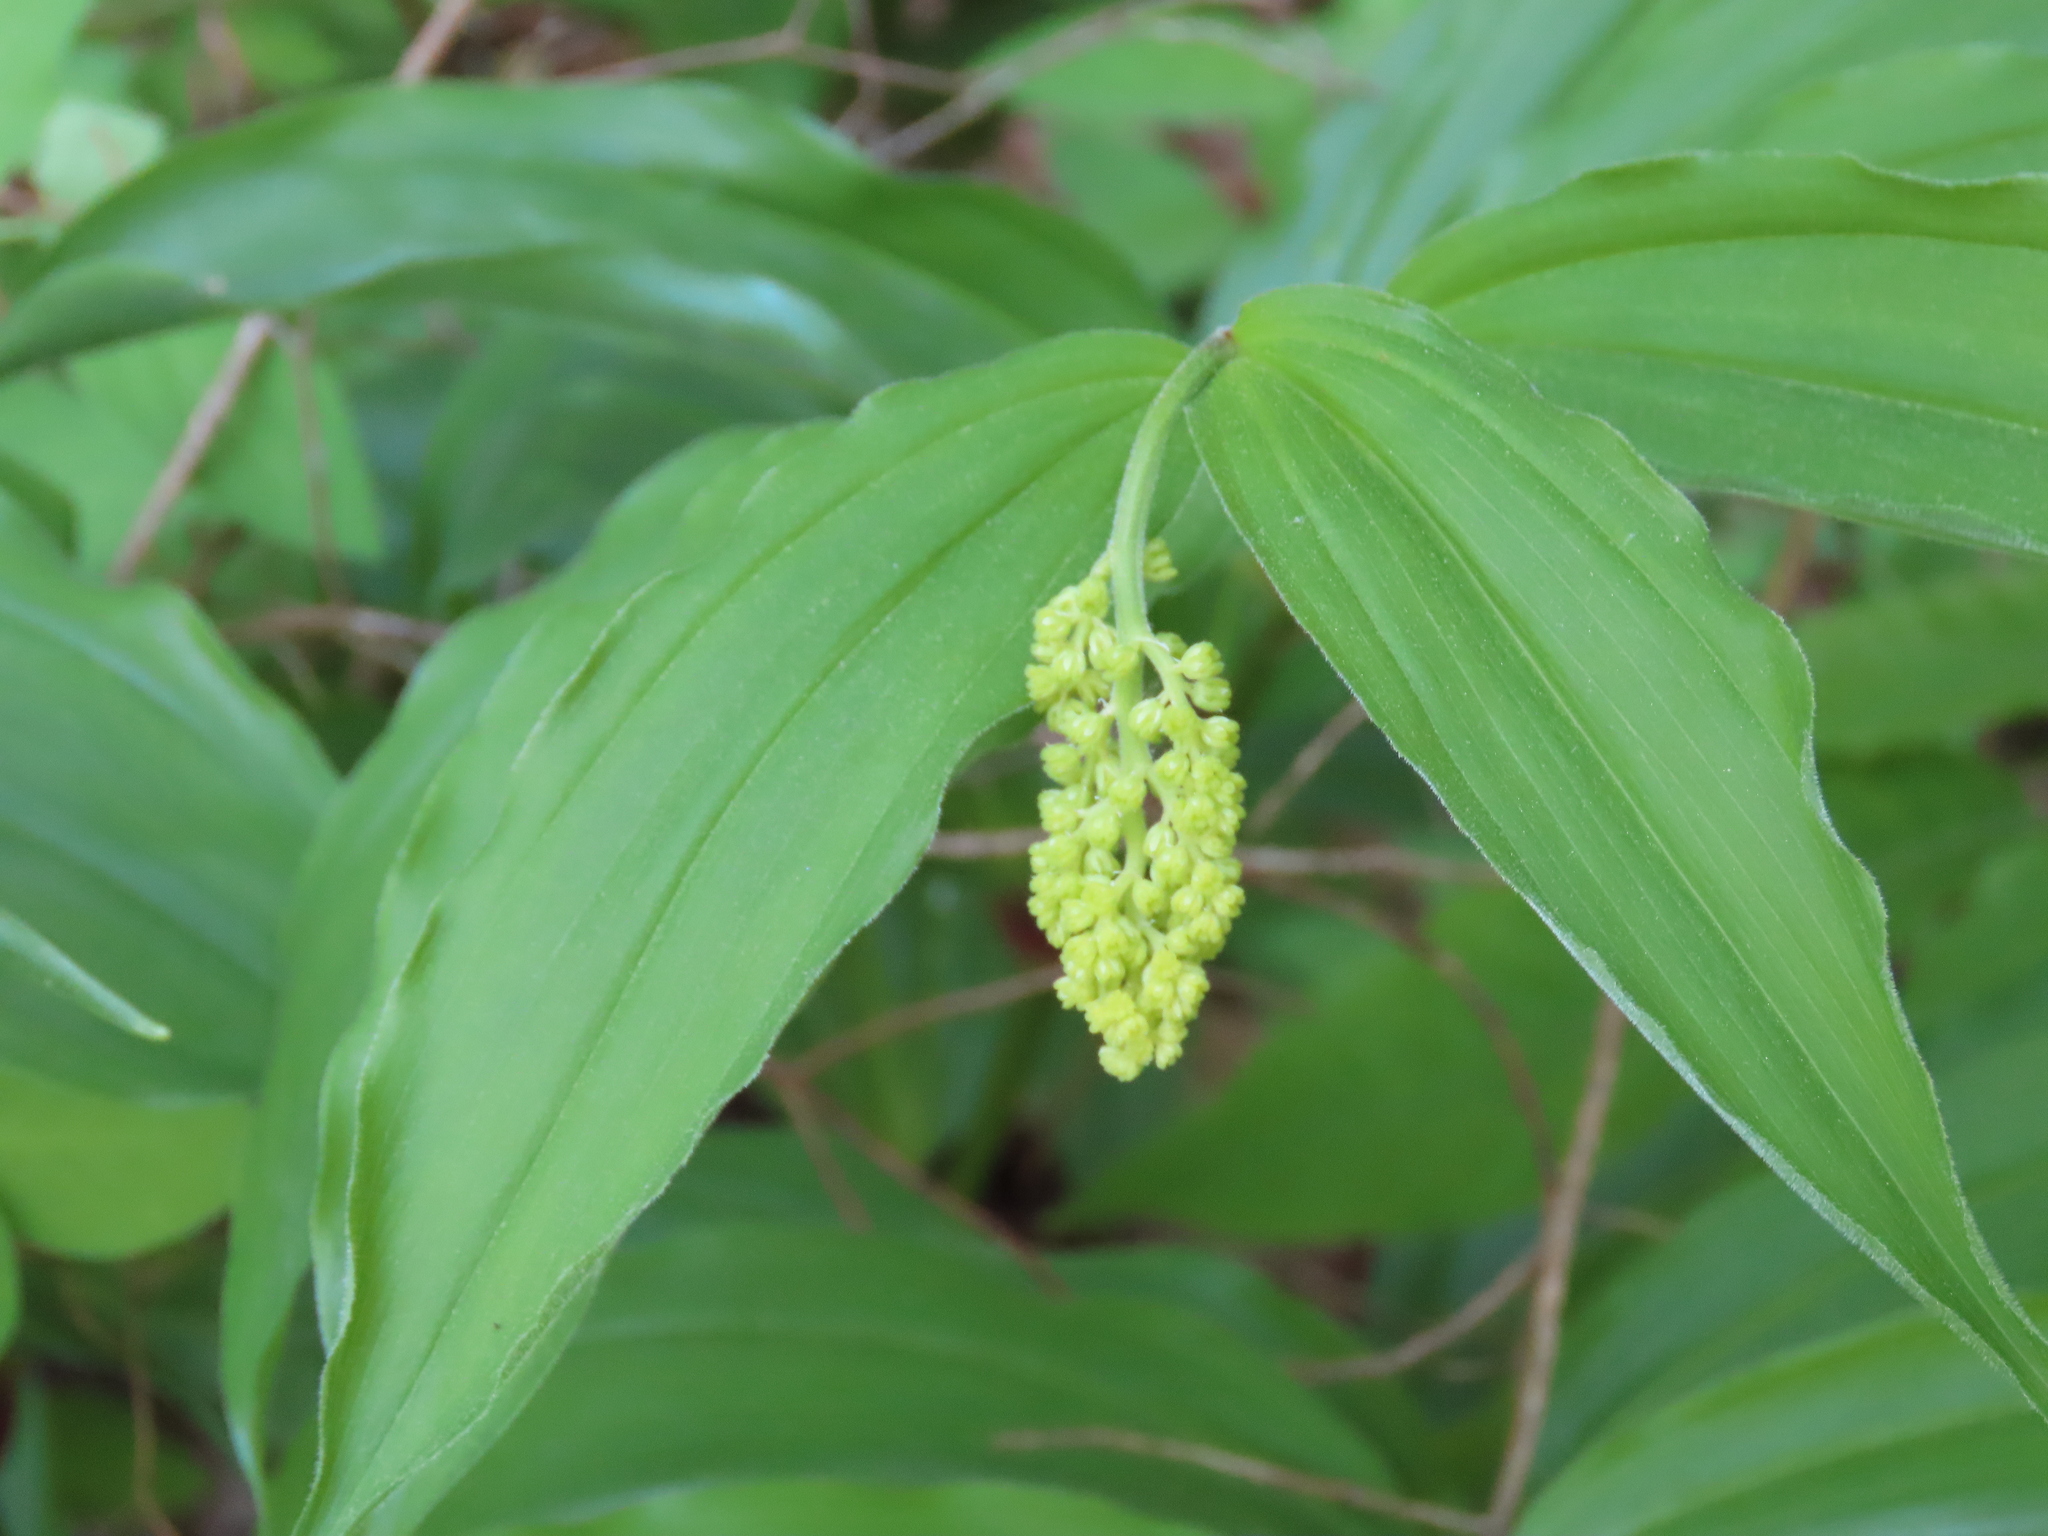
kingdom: Plantae
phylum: Tracheophyta
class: Liliopsida
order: Asparagales
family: Asparagaceae
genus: Maianthemum
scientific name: Maianthemum racemosum
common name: False spikenard
